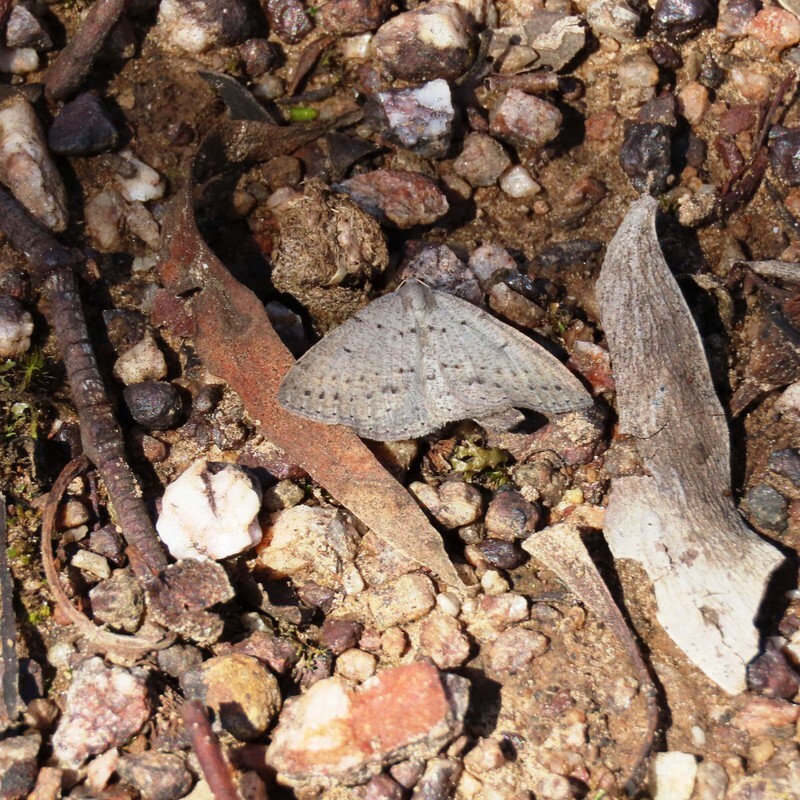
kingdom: Animalia
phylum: Arthropoda
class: Insecta
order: Lepidoptera
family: Geometridae
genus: Taxeotis
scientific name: Taxeotis reserata
